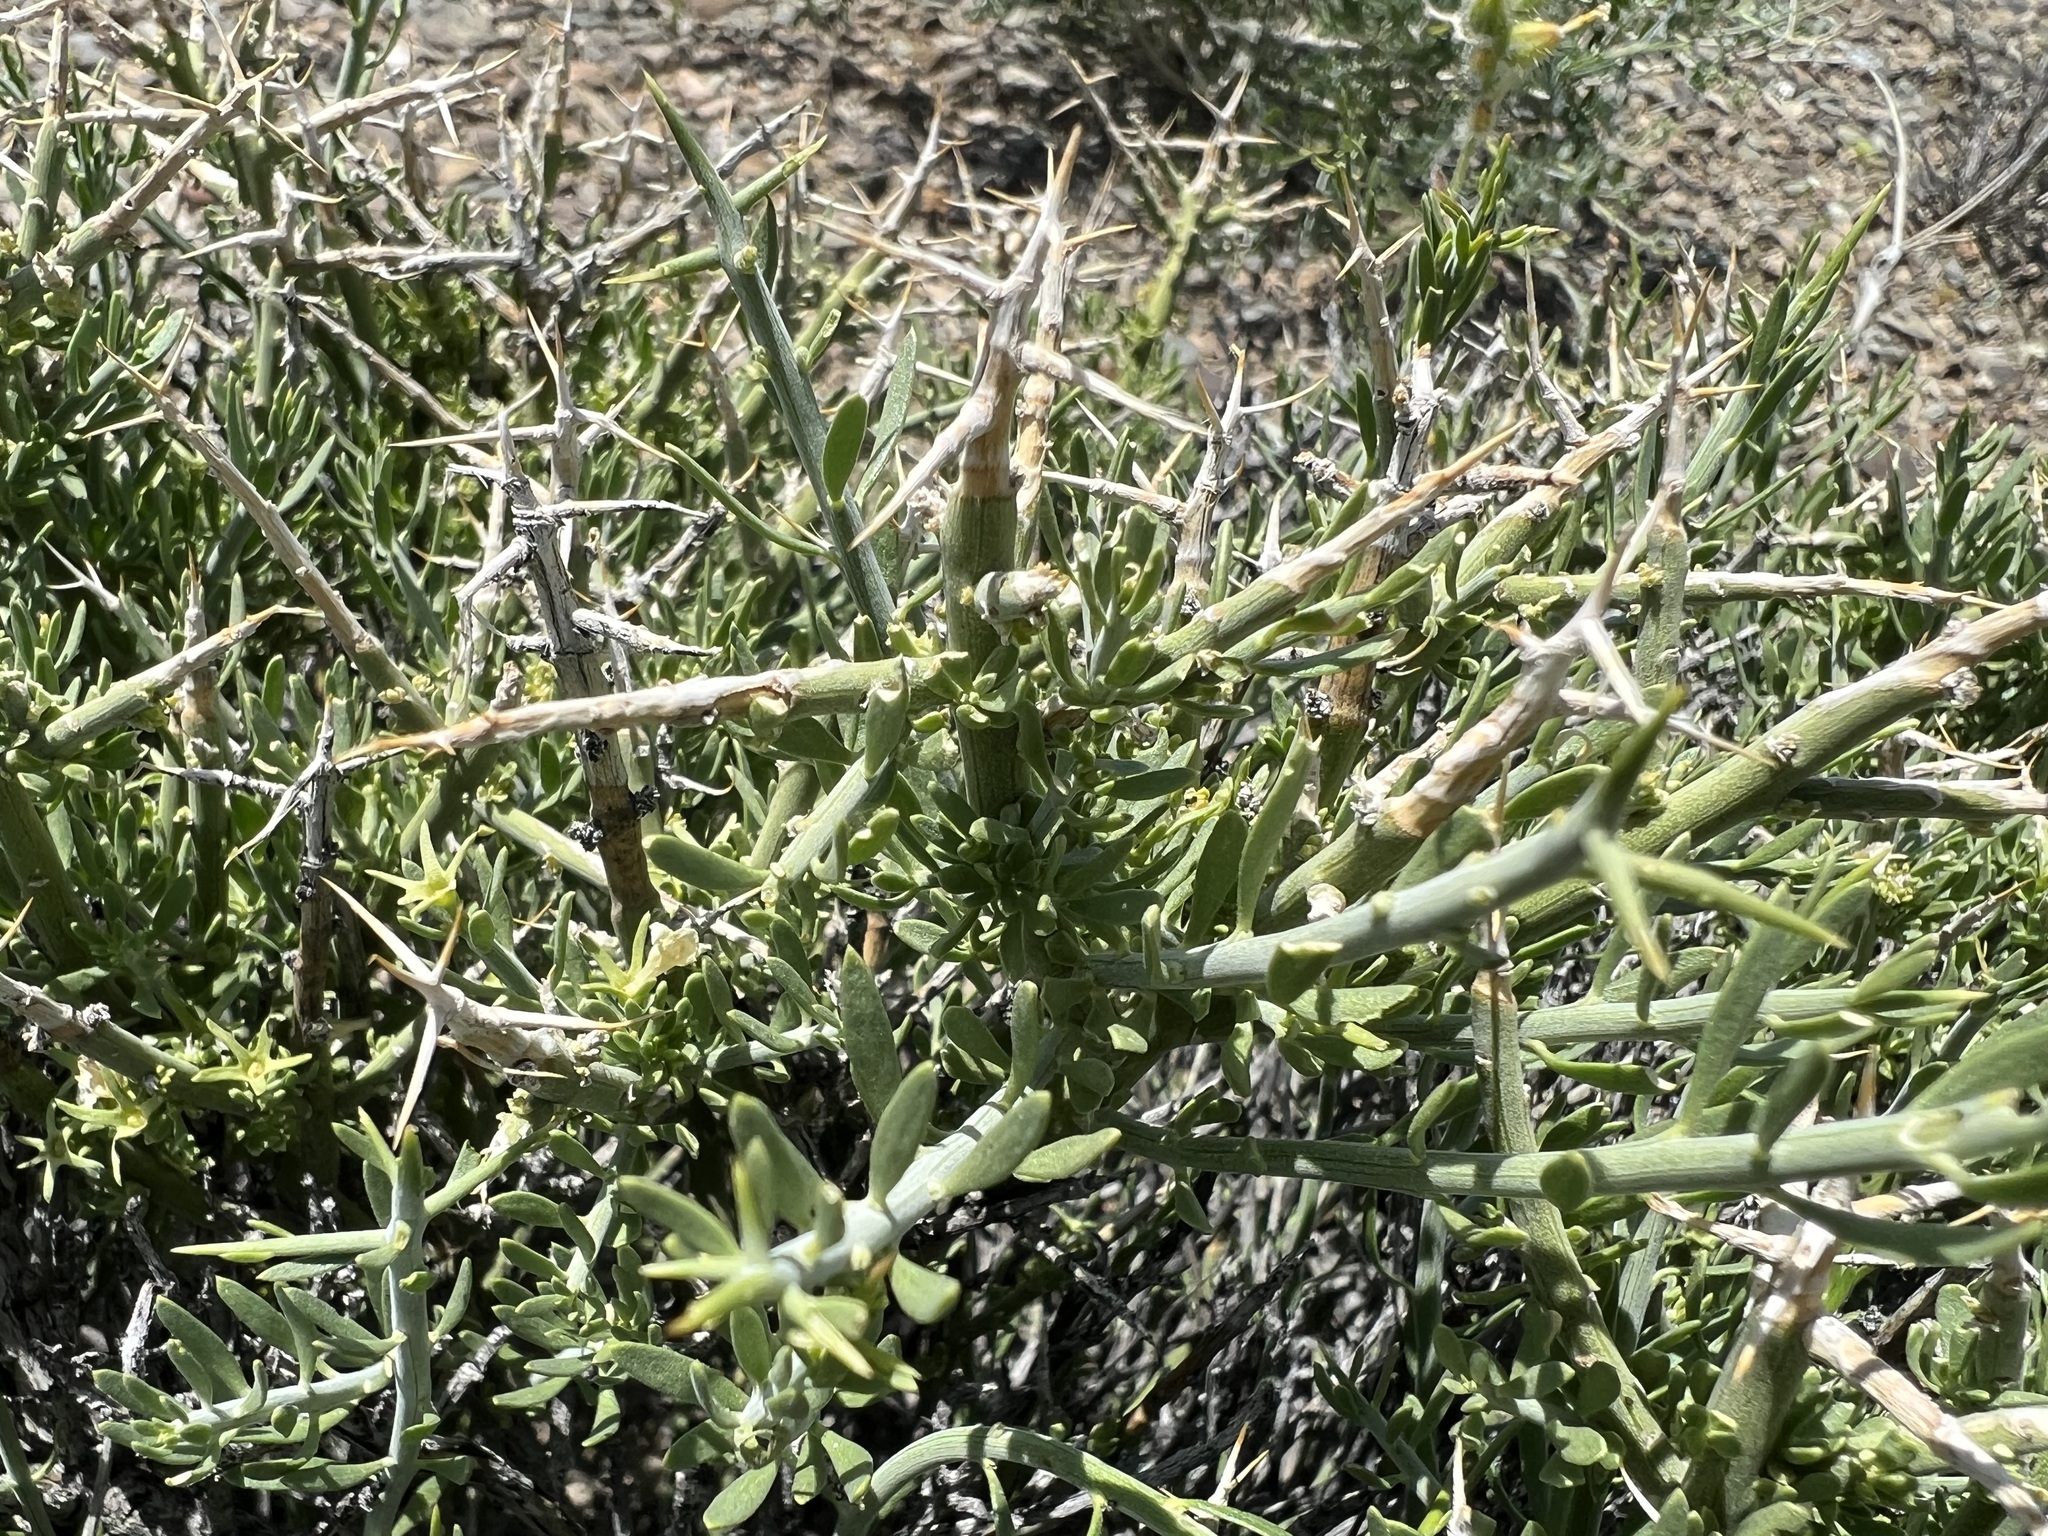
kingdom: Plantae
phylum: Tracheophyta
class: Magnoliopsida
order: Lamiales
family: Oleaceae
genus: Menodora
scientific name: Menodora spinescens
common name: Spiny menodora
